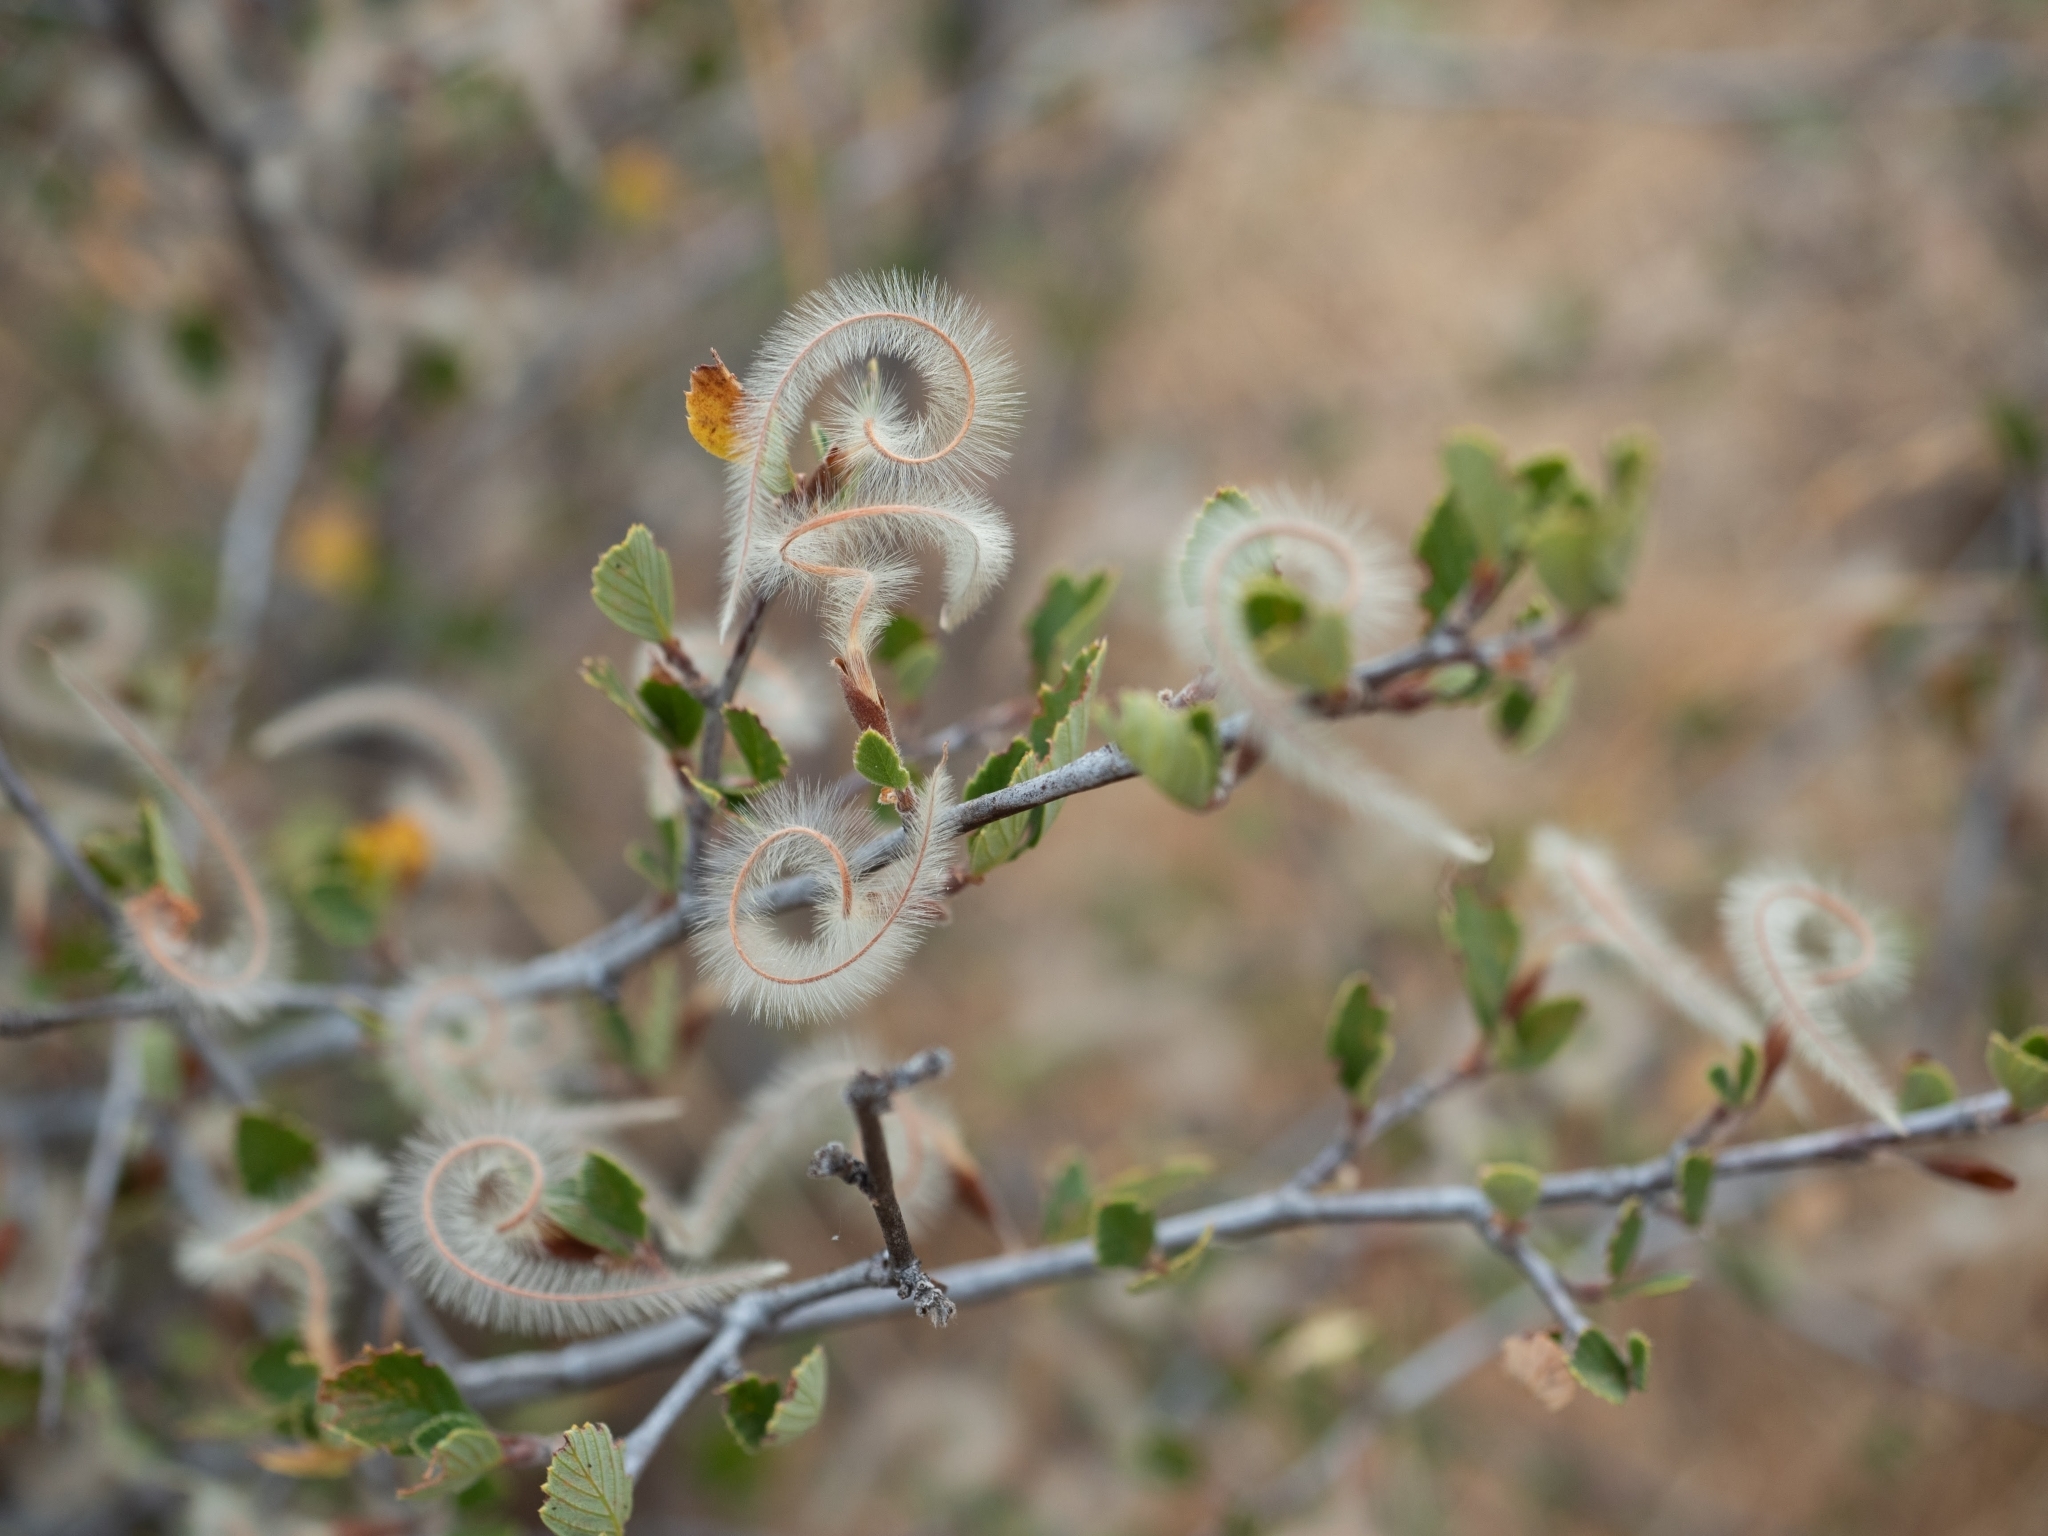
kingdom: Plantae
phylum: Tracheophyta
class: Magnoliopsida
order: Rosales
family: Rosaceae
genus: Cercocarpus
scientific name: Cercocarpus betuloides
